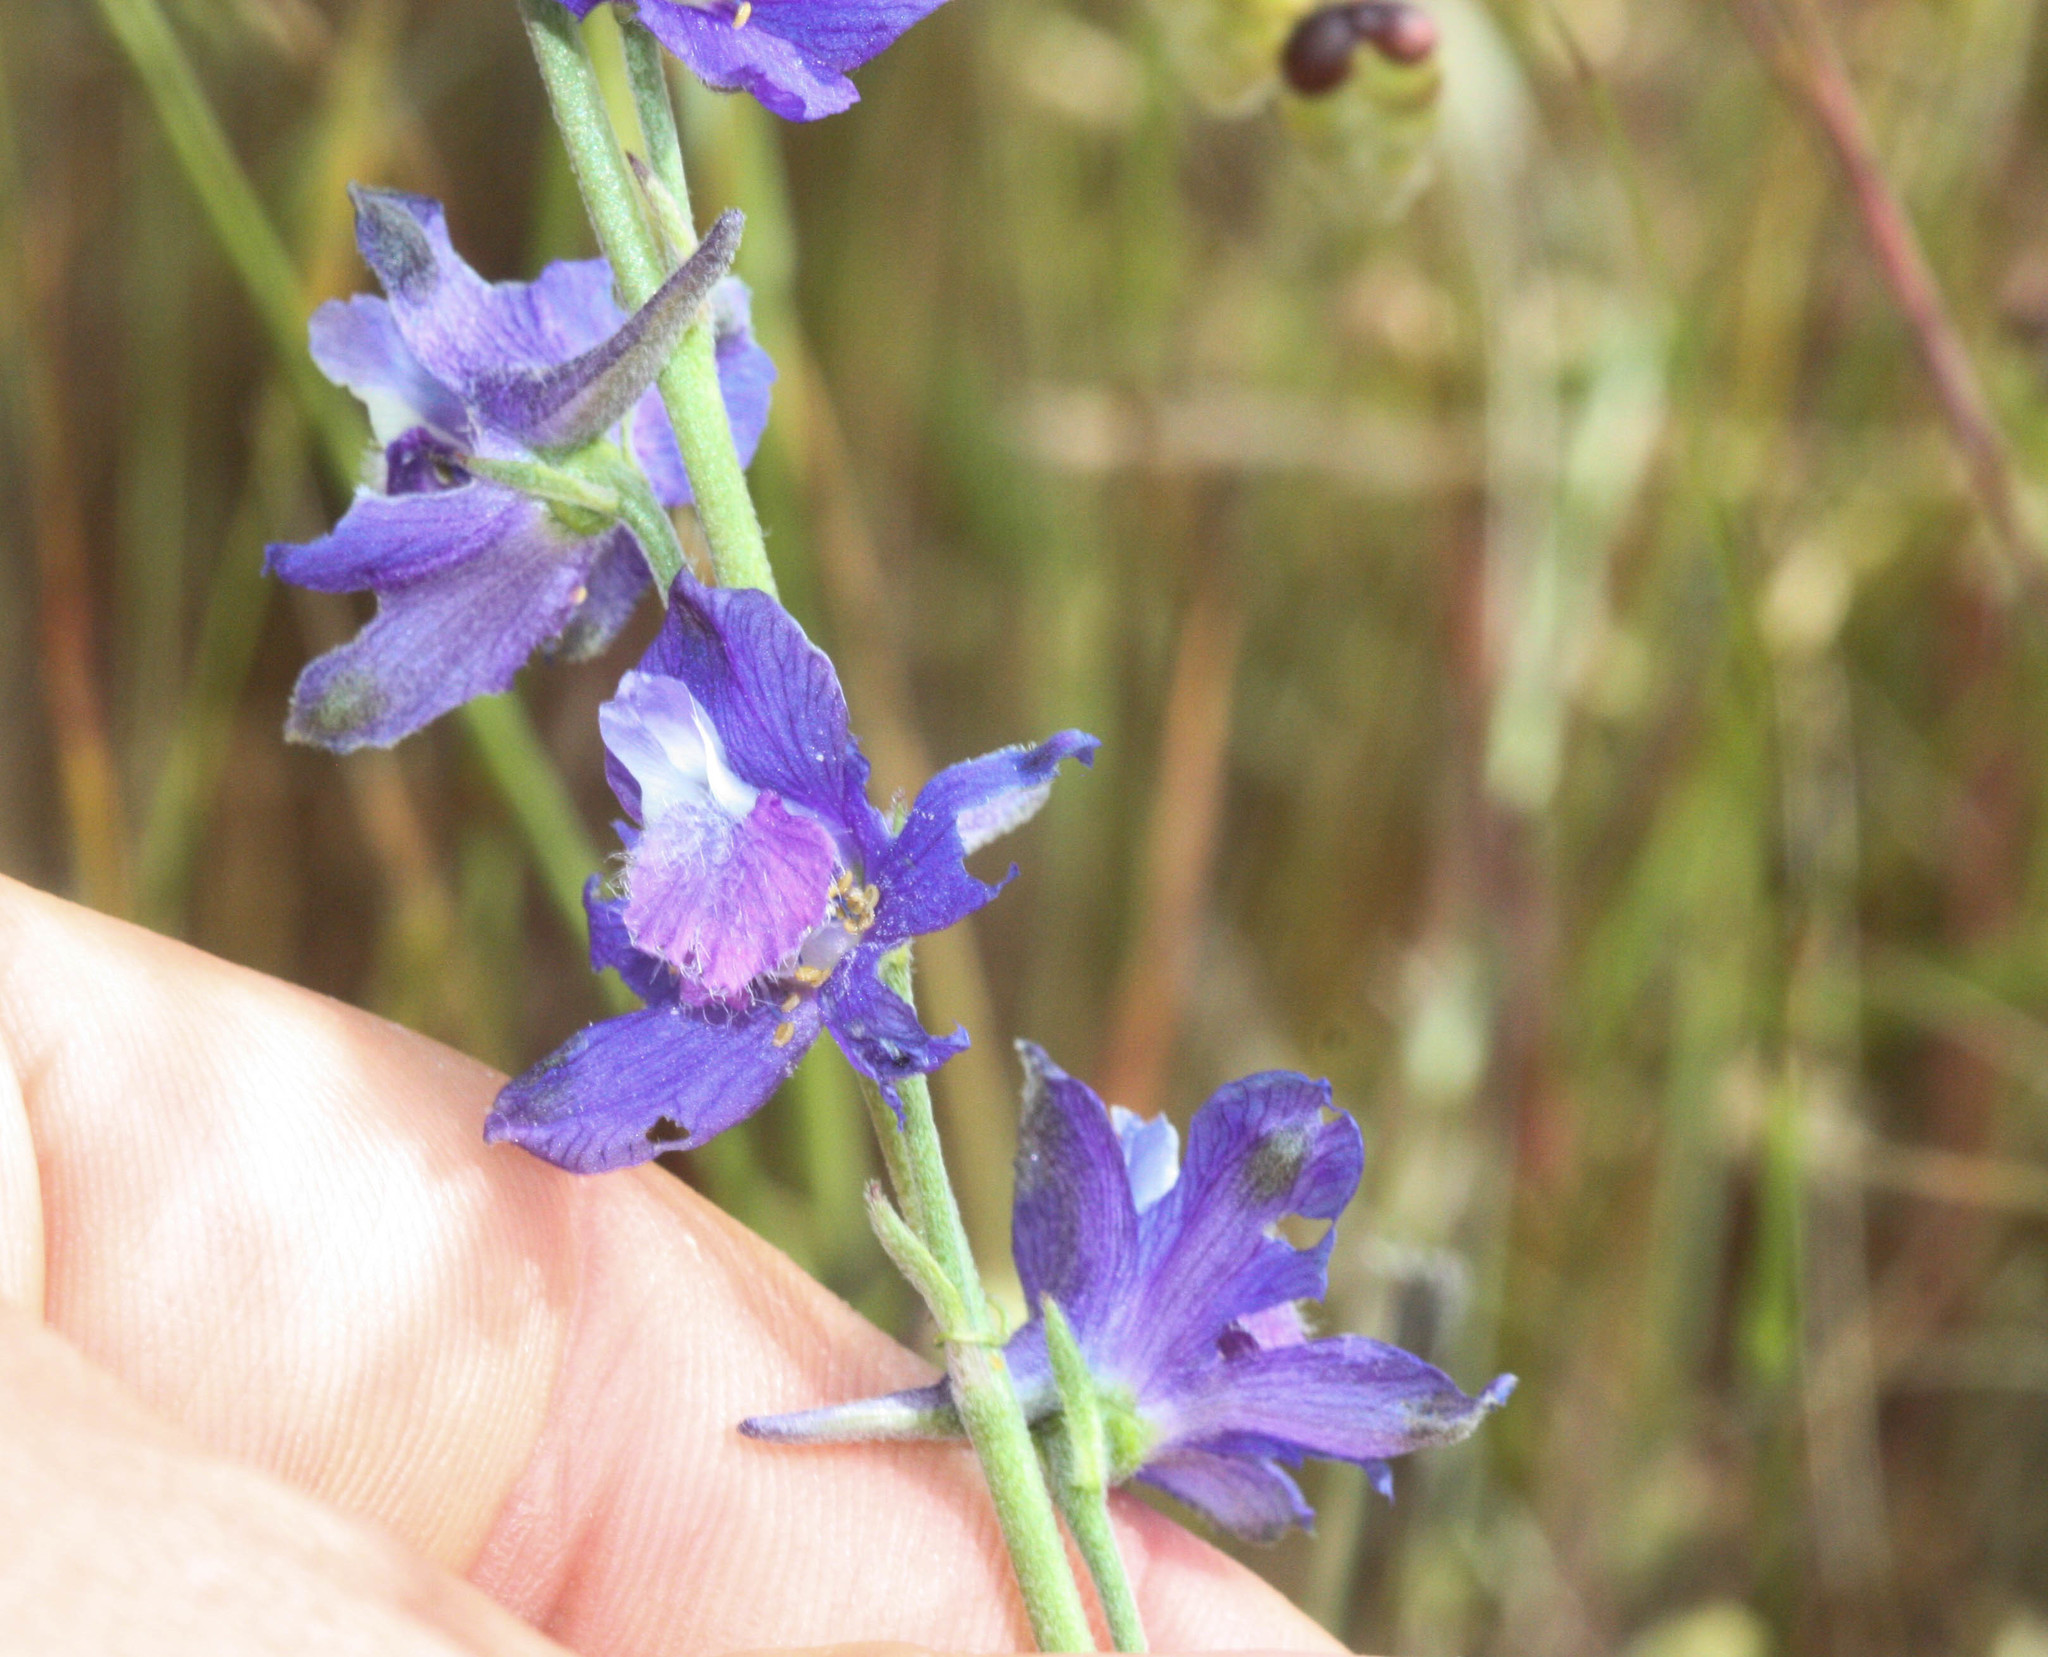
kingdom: Plantae
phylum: Tracheophyta
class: Magnoliopsida
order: Ranunculales
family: Ranunculaceae
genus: Delphinium
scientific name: Delphinium hesperium
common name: Western larkspur
